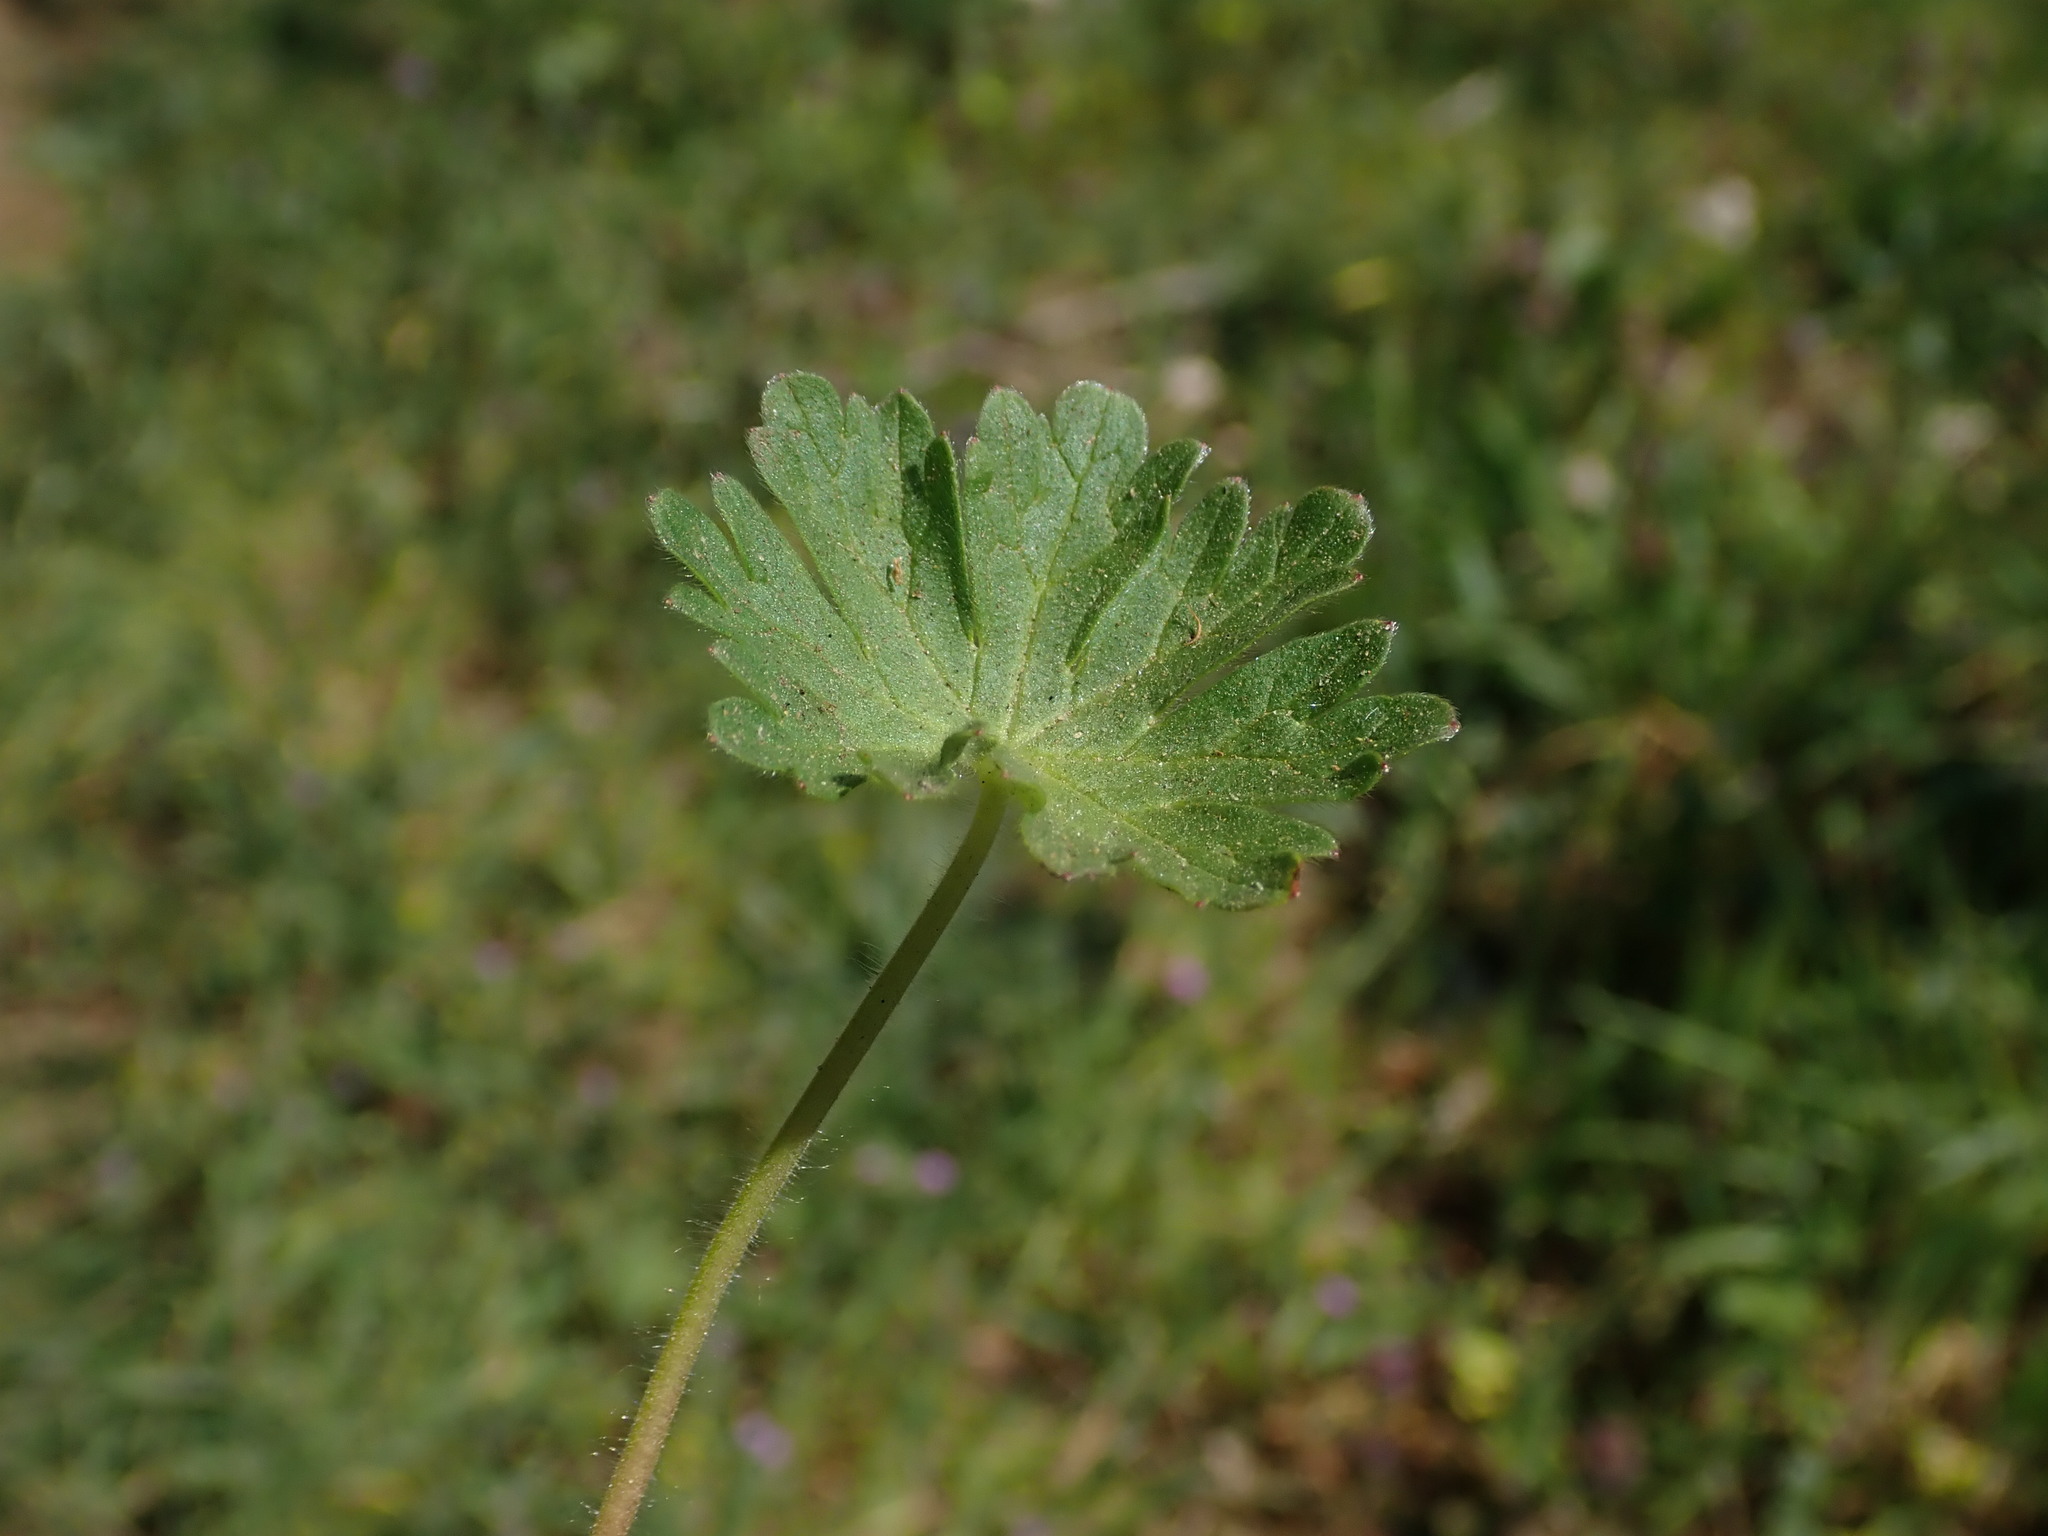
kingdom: Plantae
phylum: Tracheophyta
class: Magnoliopsida
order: Geraniales
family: Geraniaceae
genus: Geranium
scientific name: Geranium molle
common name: Dove's-foot crane's-bill
